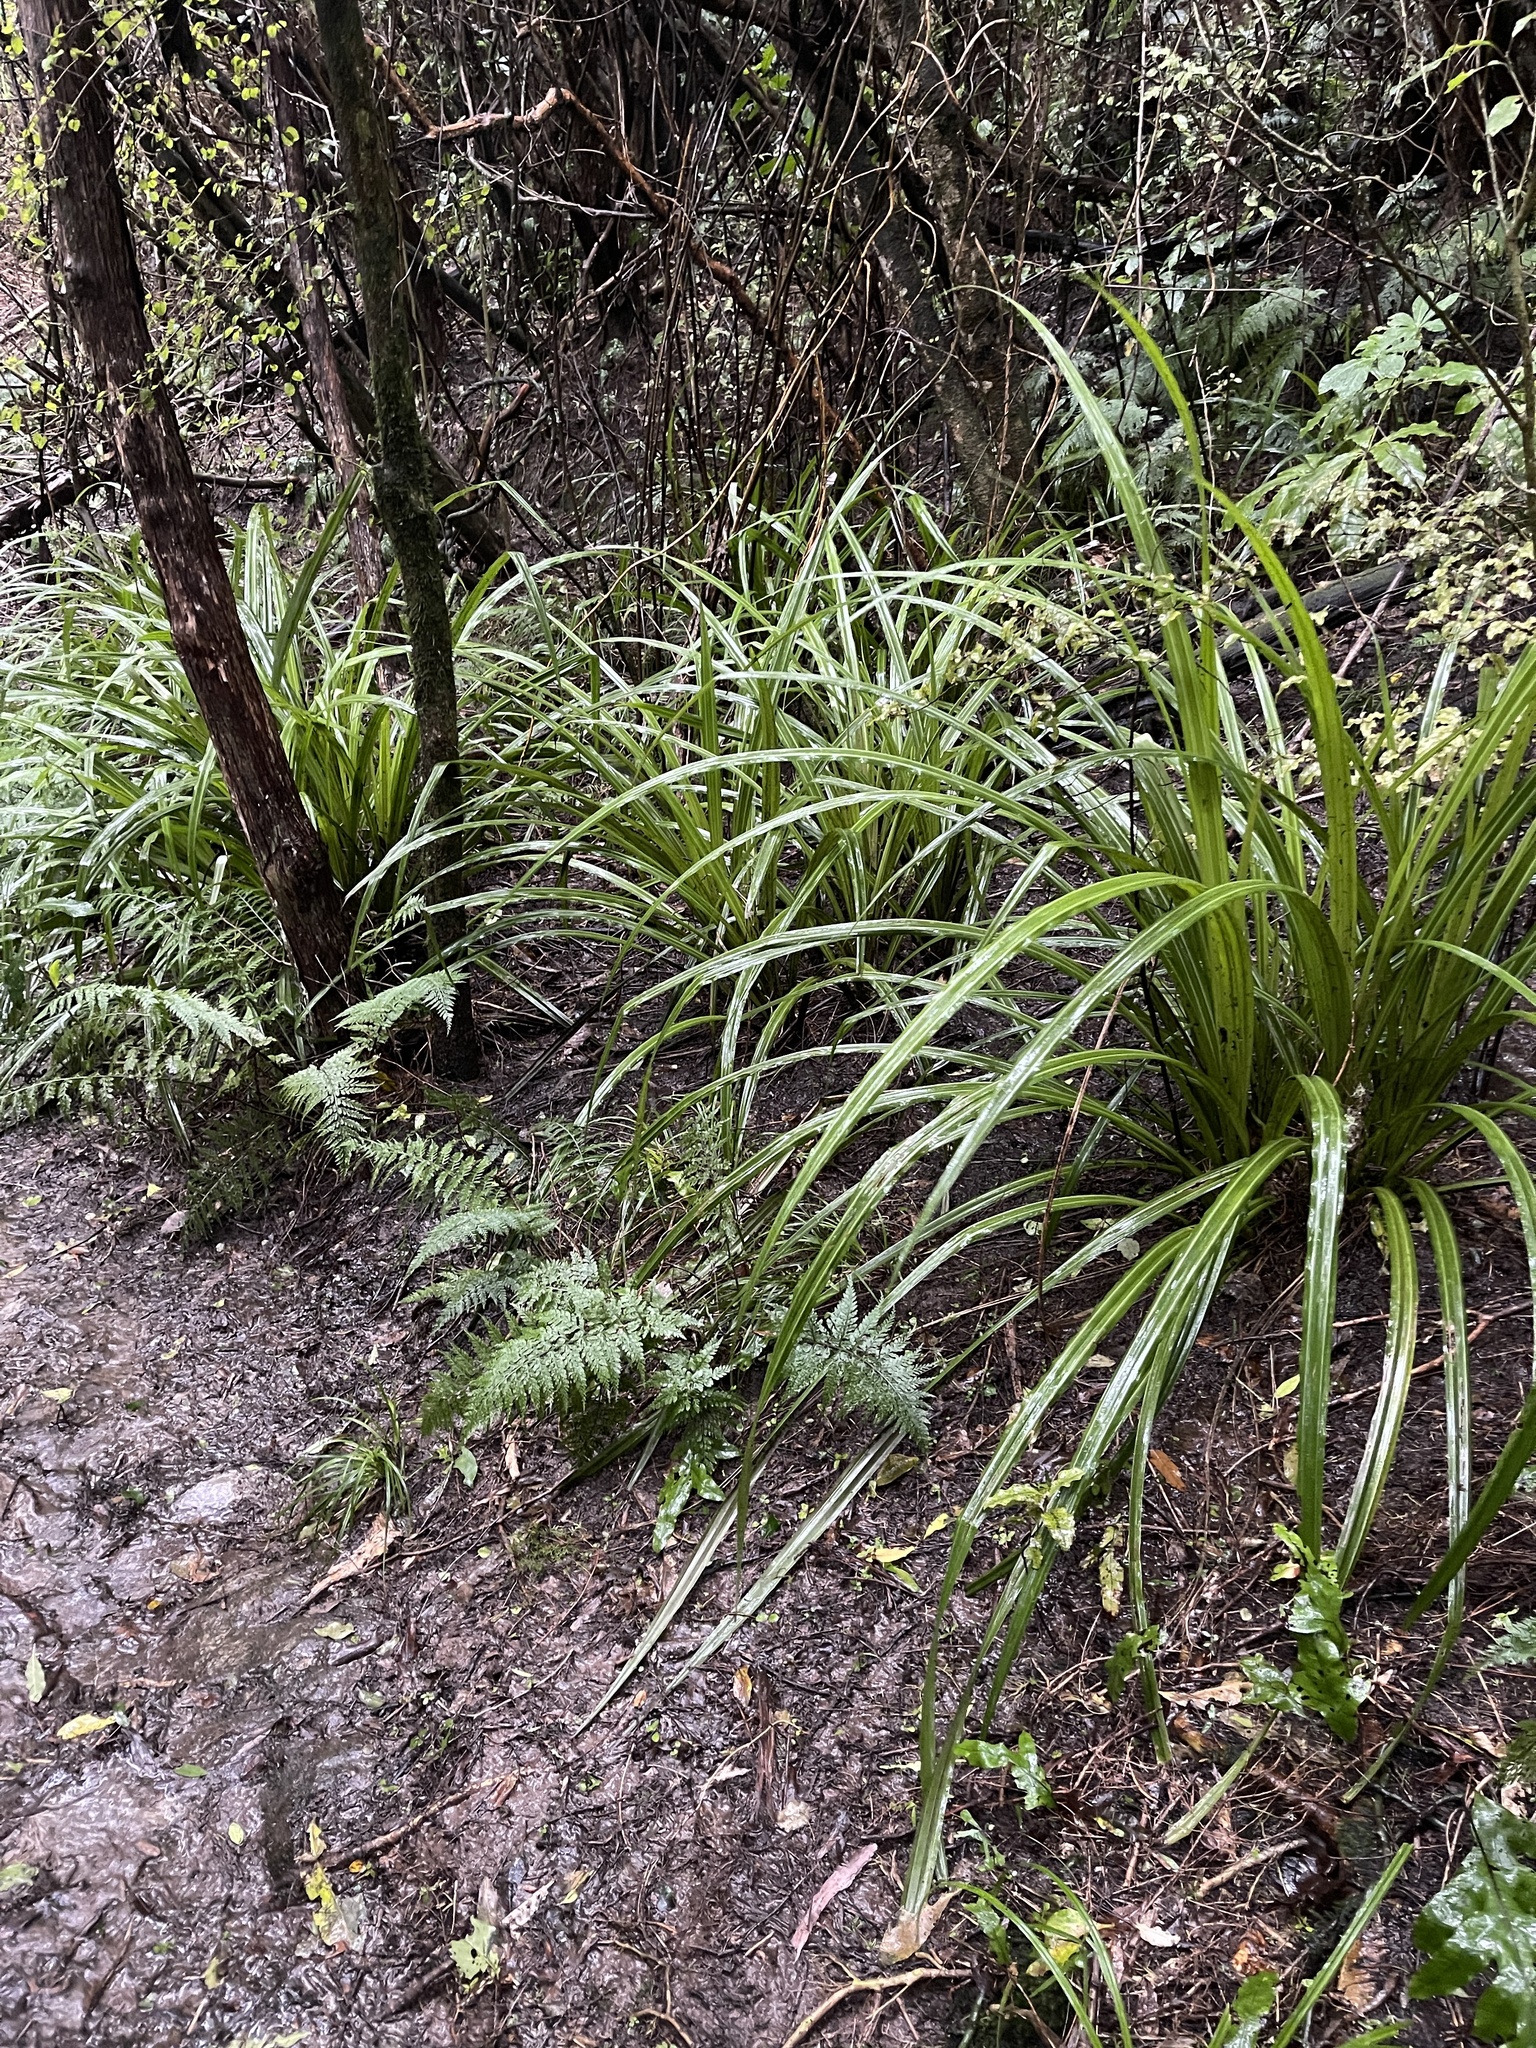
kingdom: Plantae
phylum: Tracheophyta
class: Liliopsida
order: Asparagales
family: Asteliaceae
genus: Astelia
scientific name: Astelia fragrans
